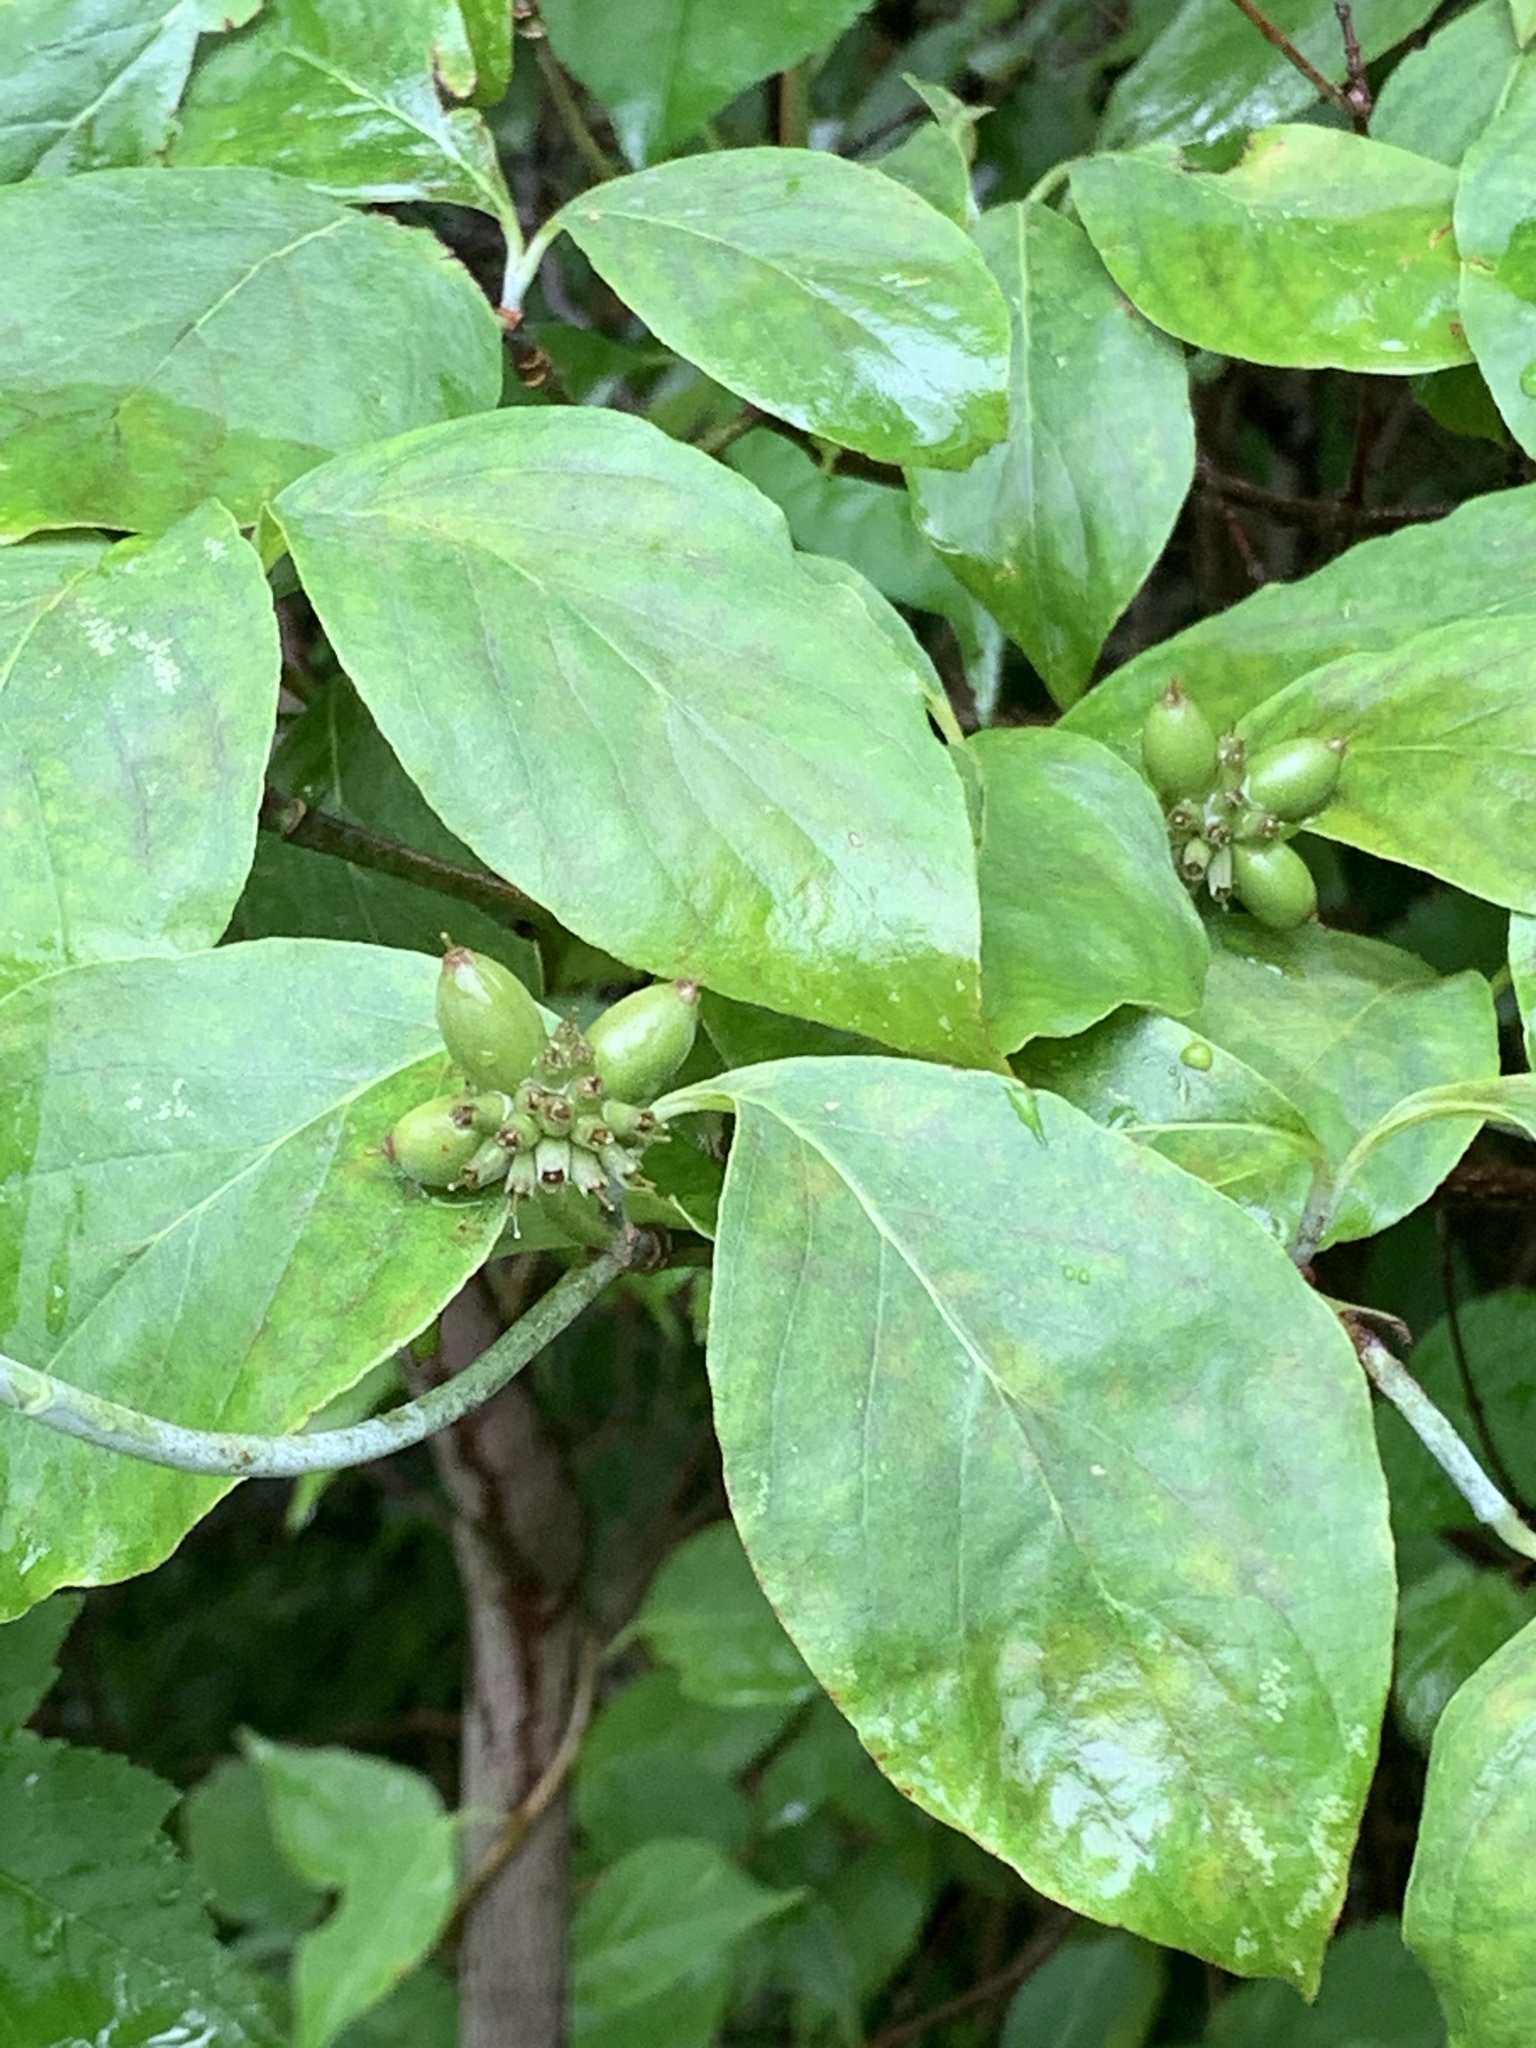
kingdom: Plantae
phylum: Tracheophyta
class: Magnoliopsida
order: Cornales
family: Cornaceae
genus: Cornus
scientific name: Cornus florida
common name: Flowering dogwood
